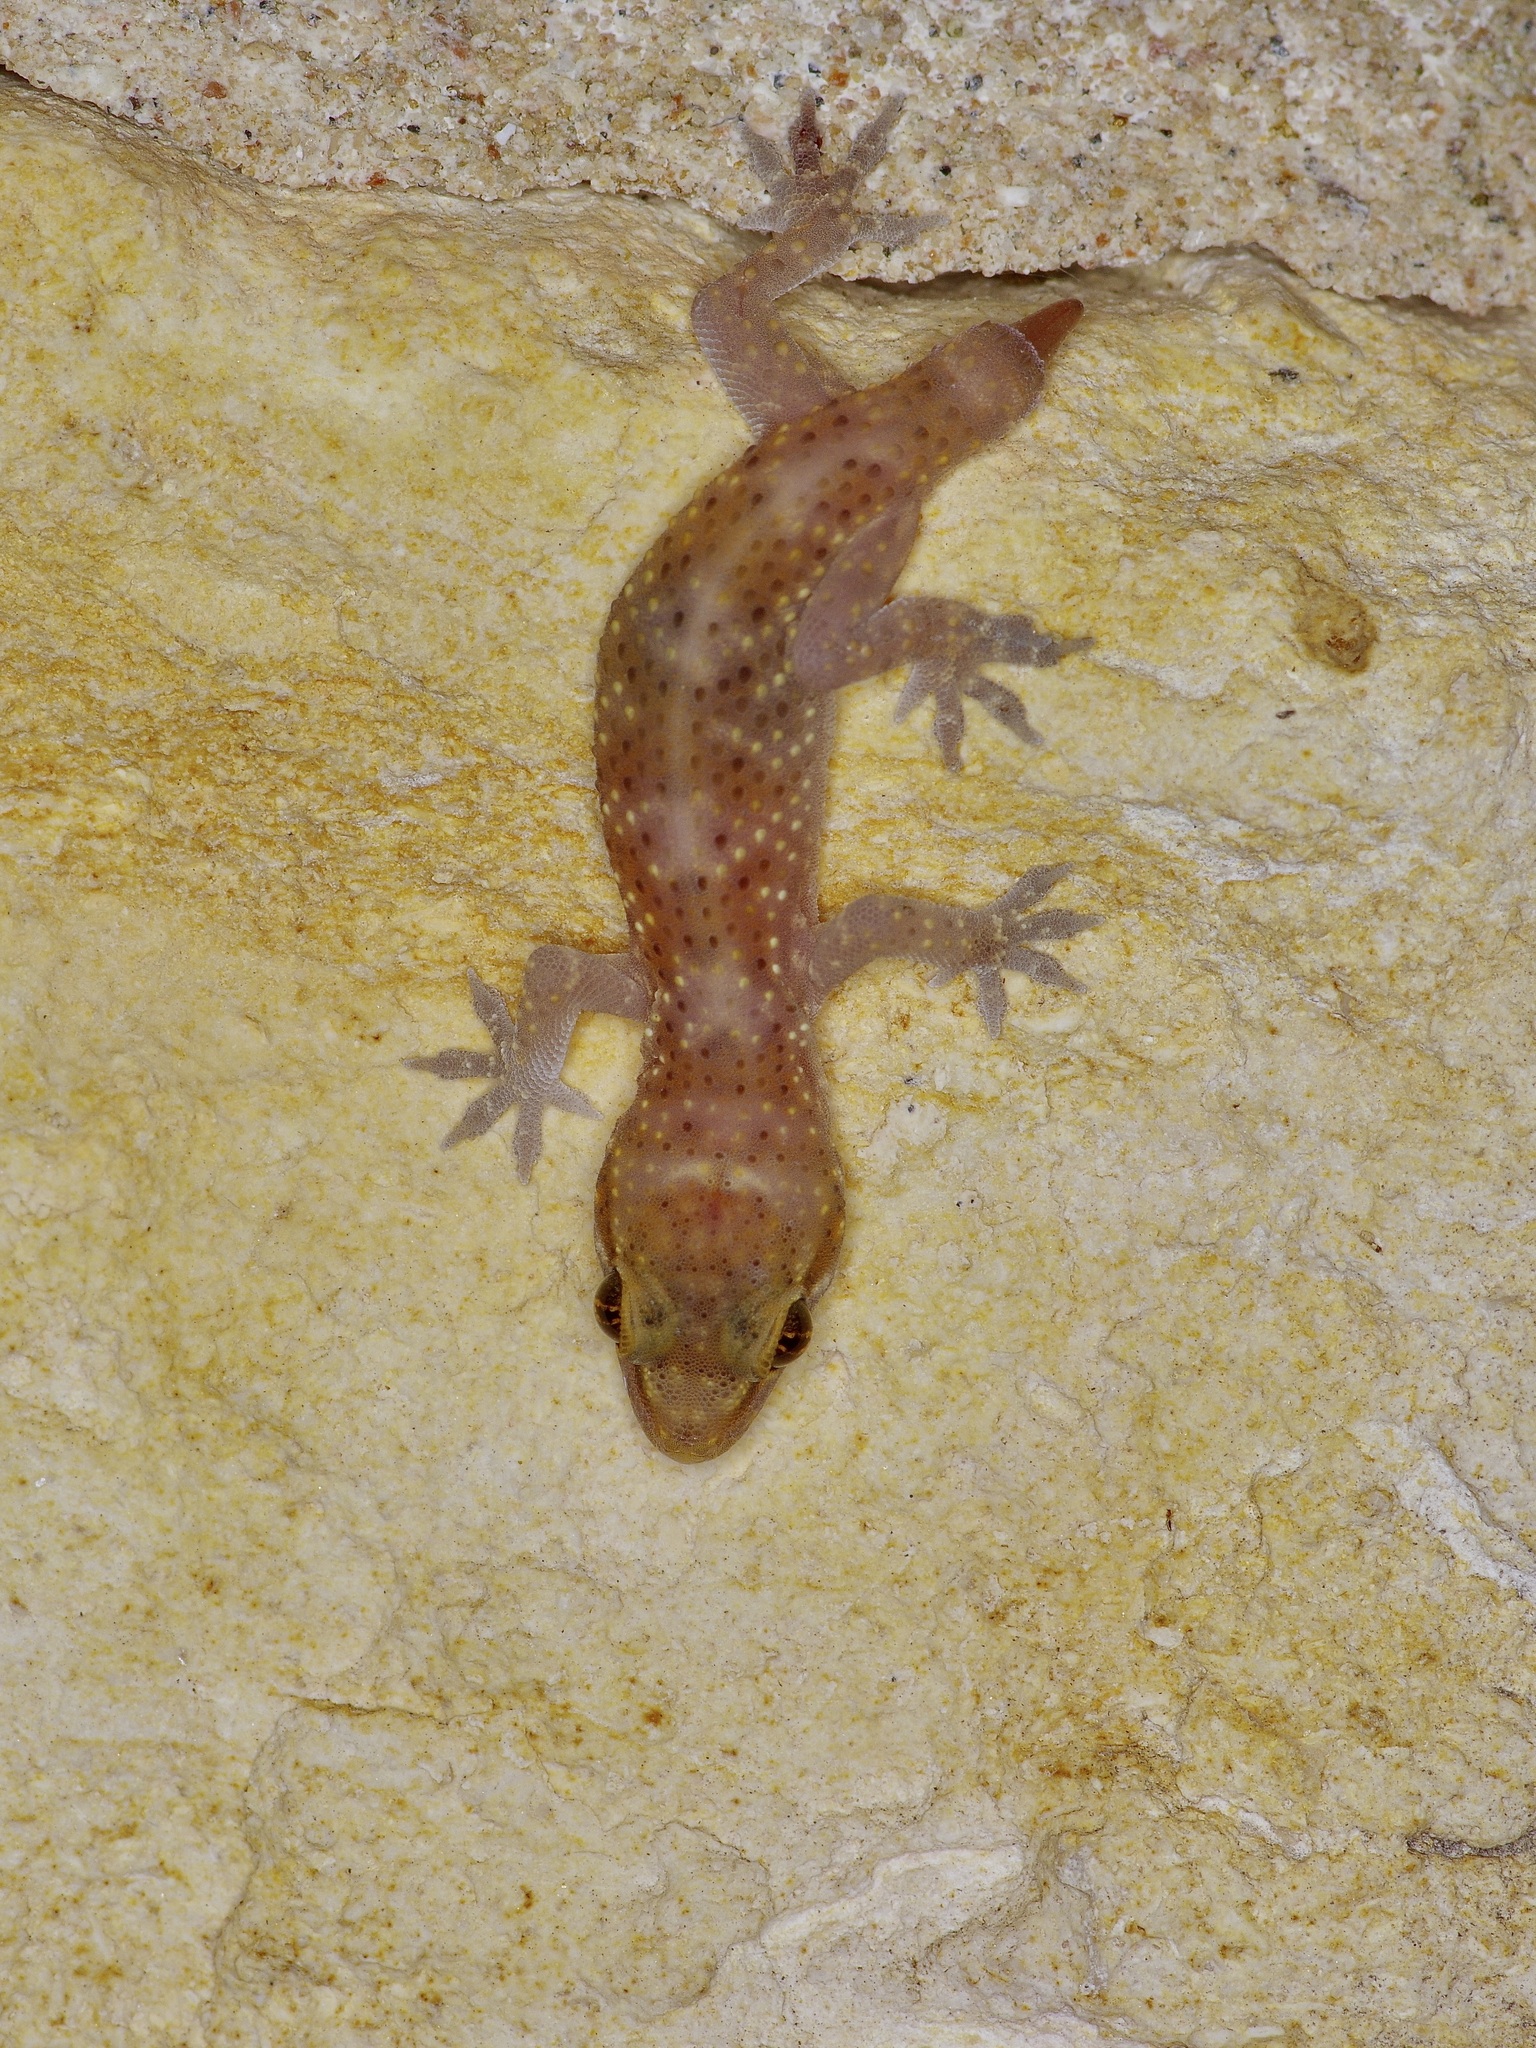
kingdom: Animalia
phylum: Chordata
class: Squamata
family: Gekkonidae
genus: Hemidactylus
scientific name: Hemidactylus turcicus
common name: Turkish gecko
